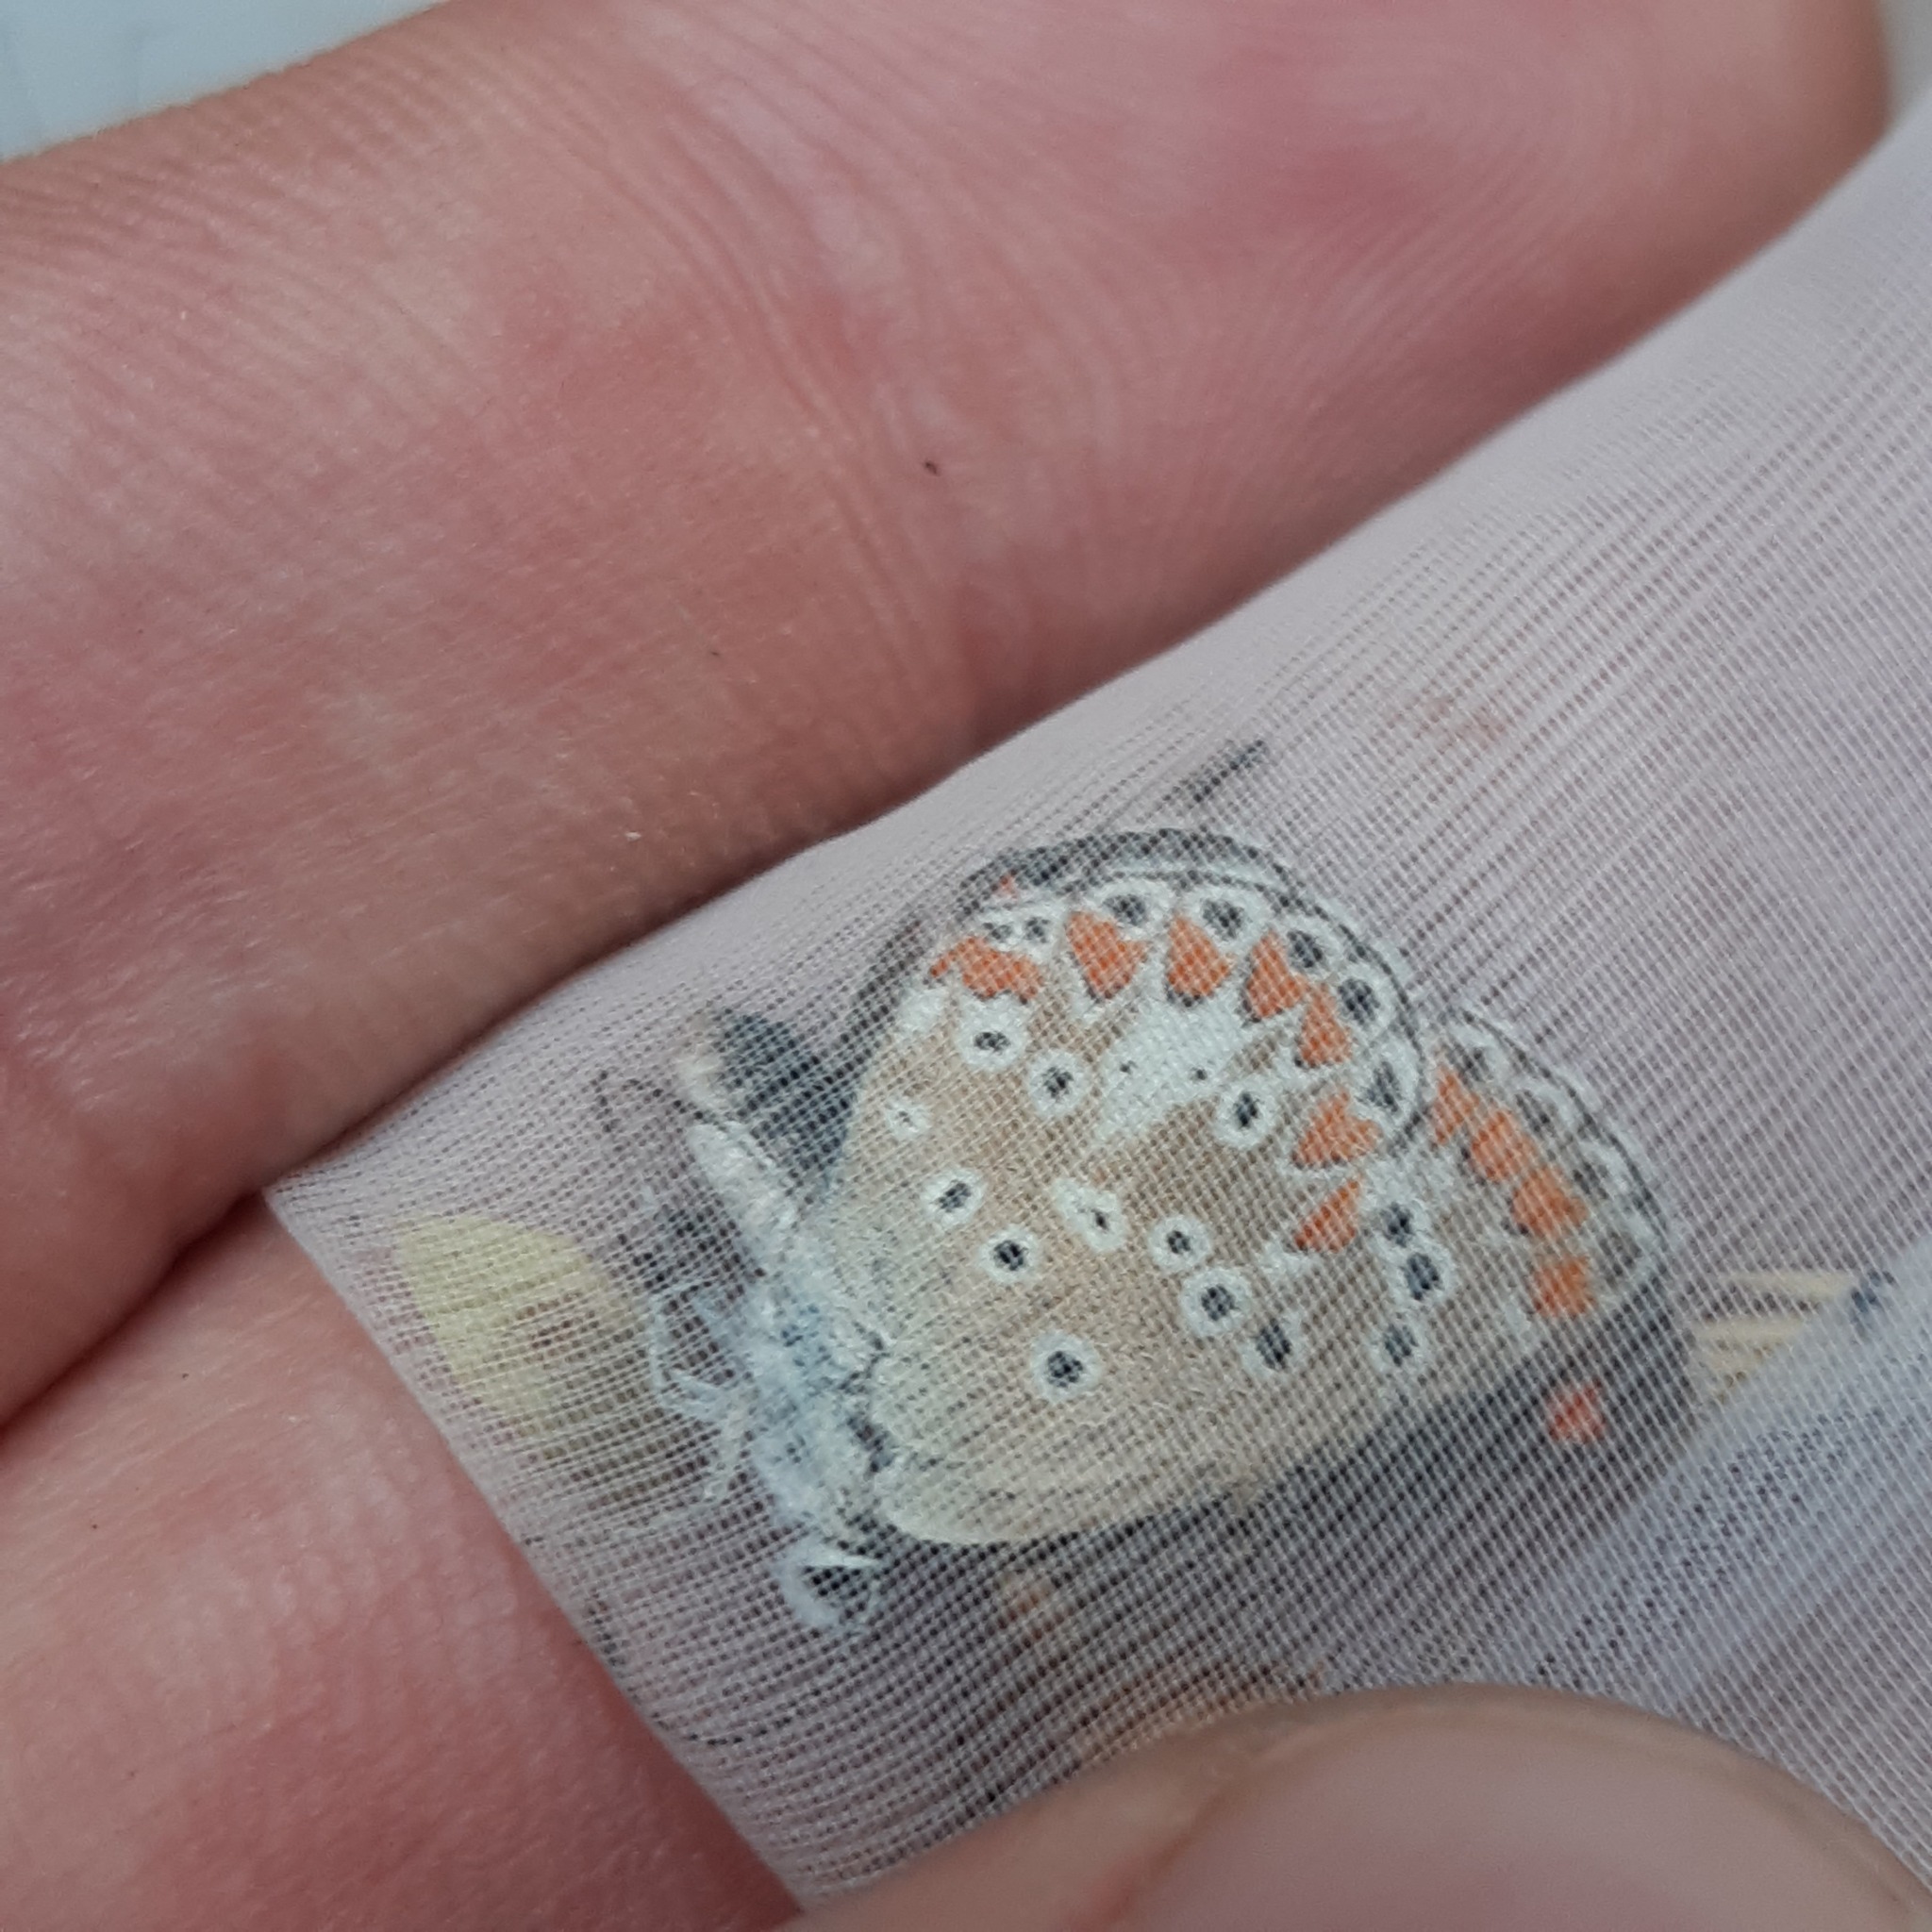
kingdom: Animalia
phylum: Arthropoda
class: Insecta
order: Lepidoptera
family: Lycaenidae
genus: Aricia
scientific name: Aricia agestis
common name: Brown argus
